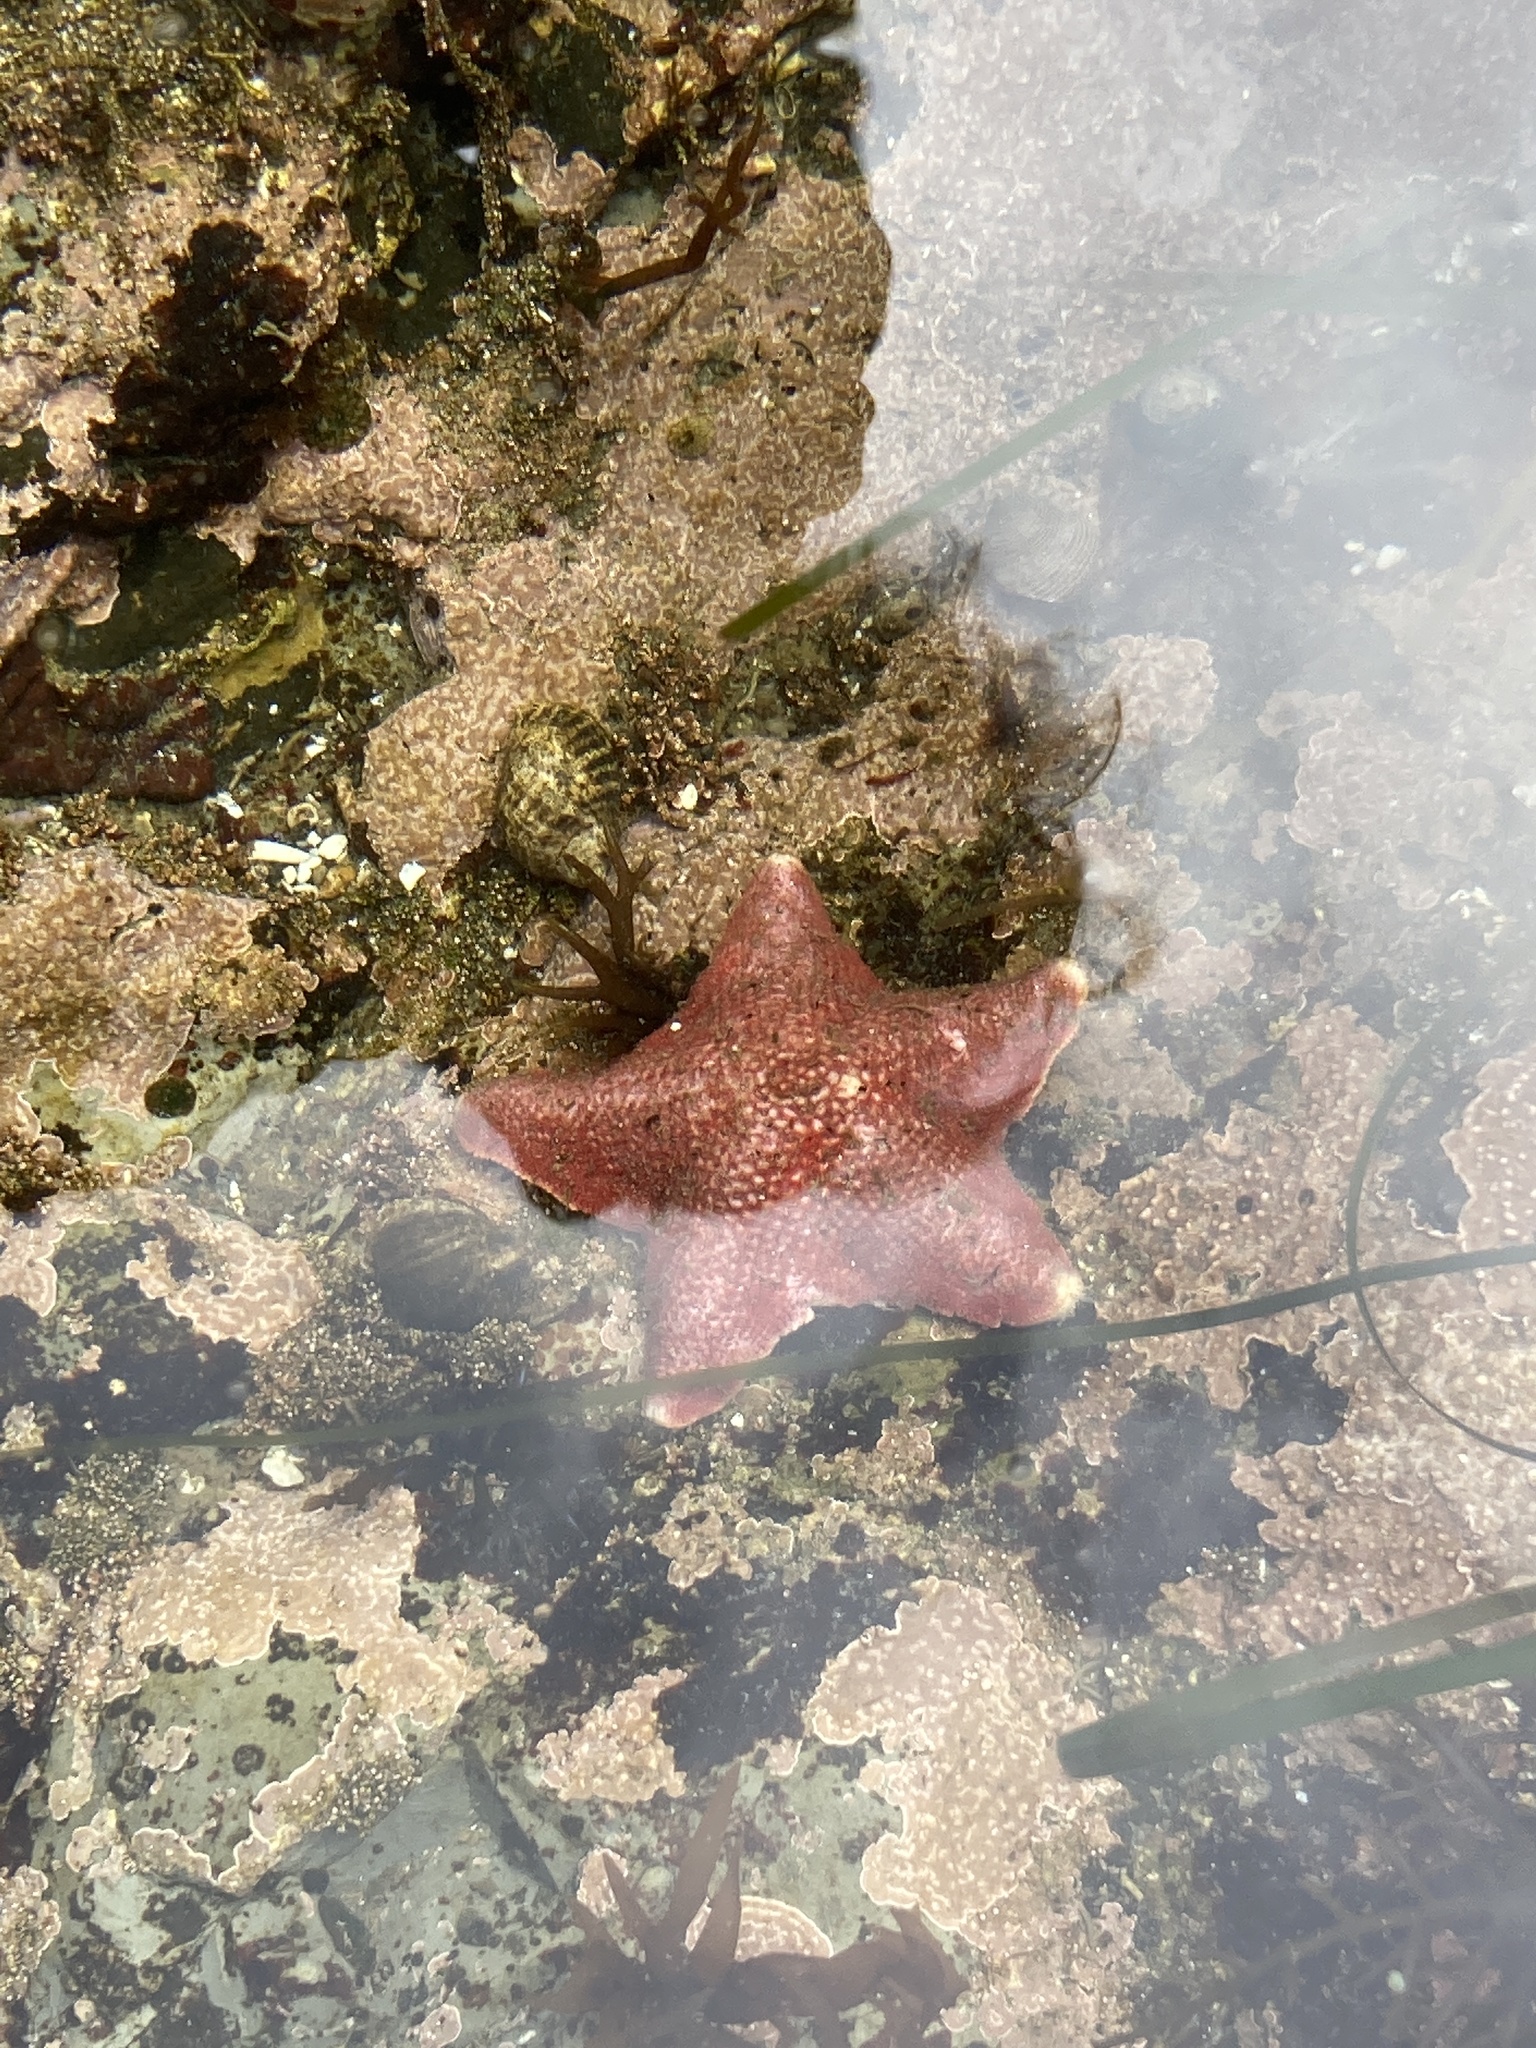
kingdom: Animalia
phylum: Echinodermata
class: Asteroidea
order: Valvatida
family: Asterinidae
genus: Patiria
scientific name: Patiria miniata
